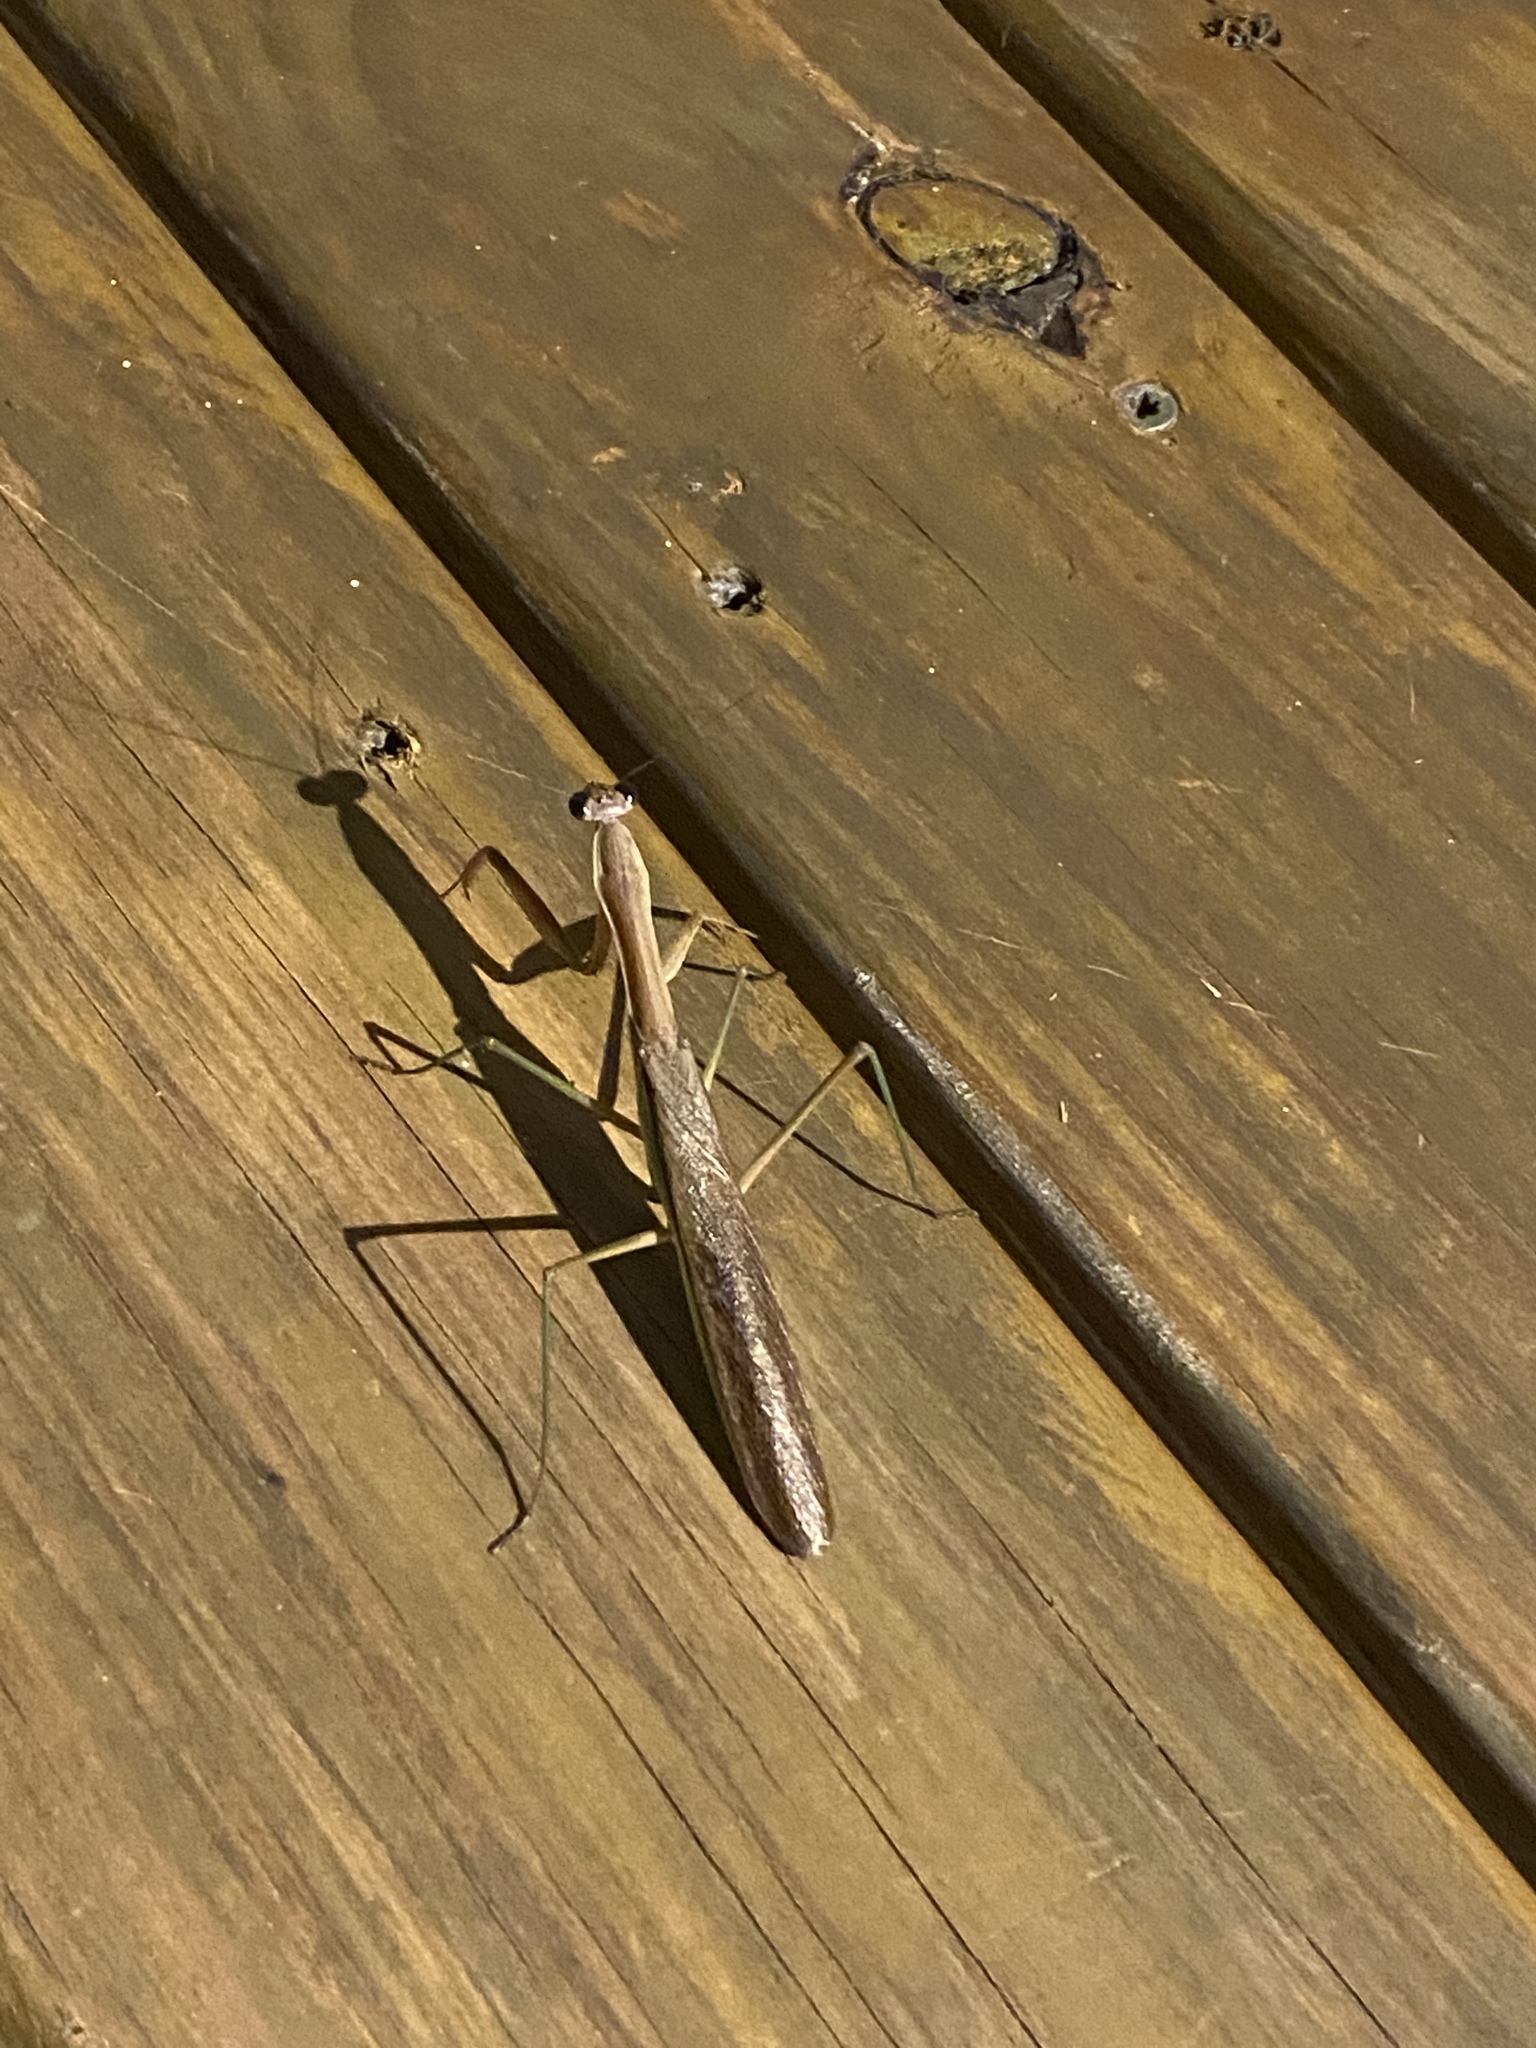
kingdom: Animalia
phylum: Arthropoda
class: Insecta
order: Mantodea
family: Mantidae
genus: Tenodera
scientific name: Tenodera sinensis
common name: Chinese mantis
